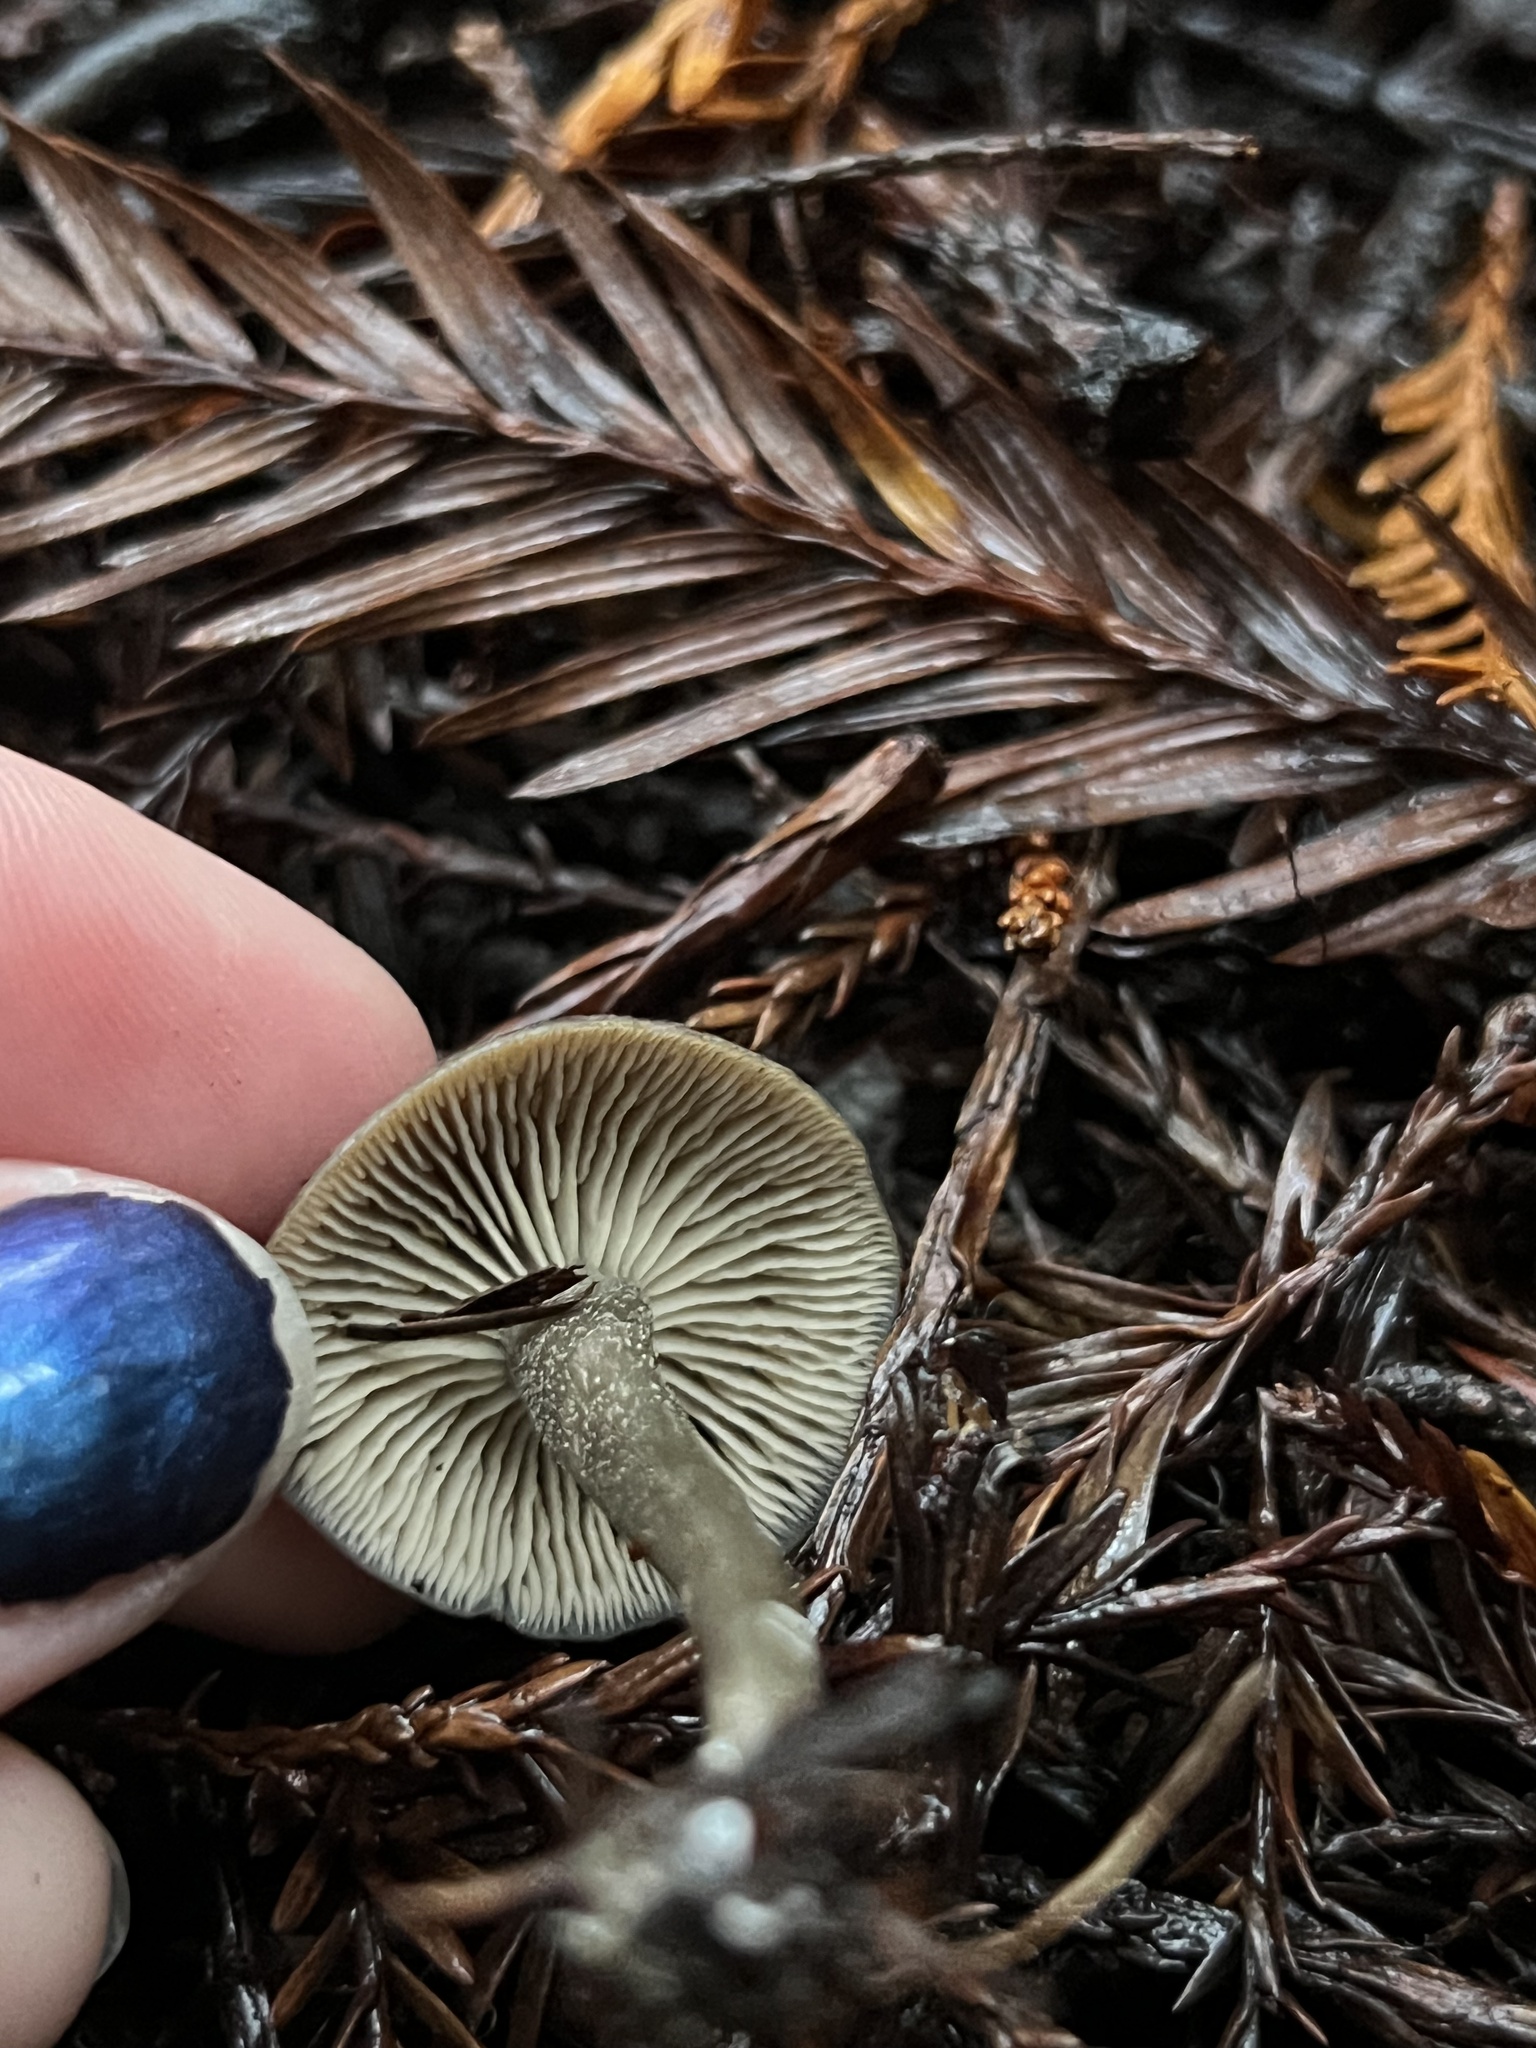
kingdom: Fungi
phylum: Basidiomycota
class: Agaricomycetes
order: Agaricales
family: Tricholomataceae
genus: Myxomphalia
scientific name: Myxomphalia maura
